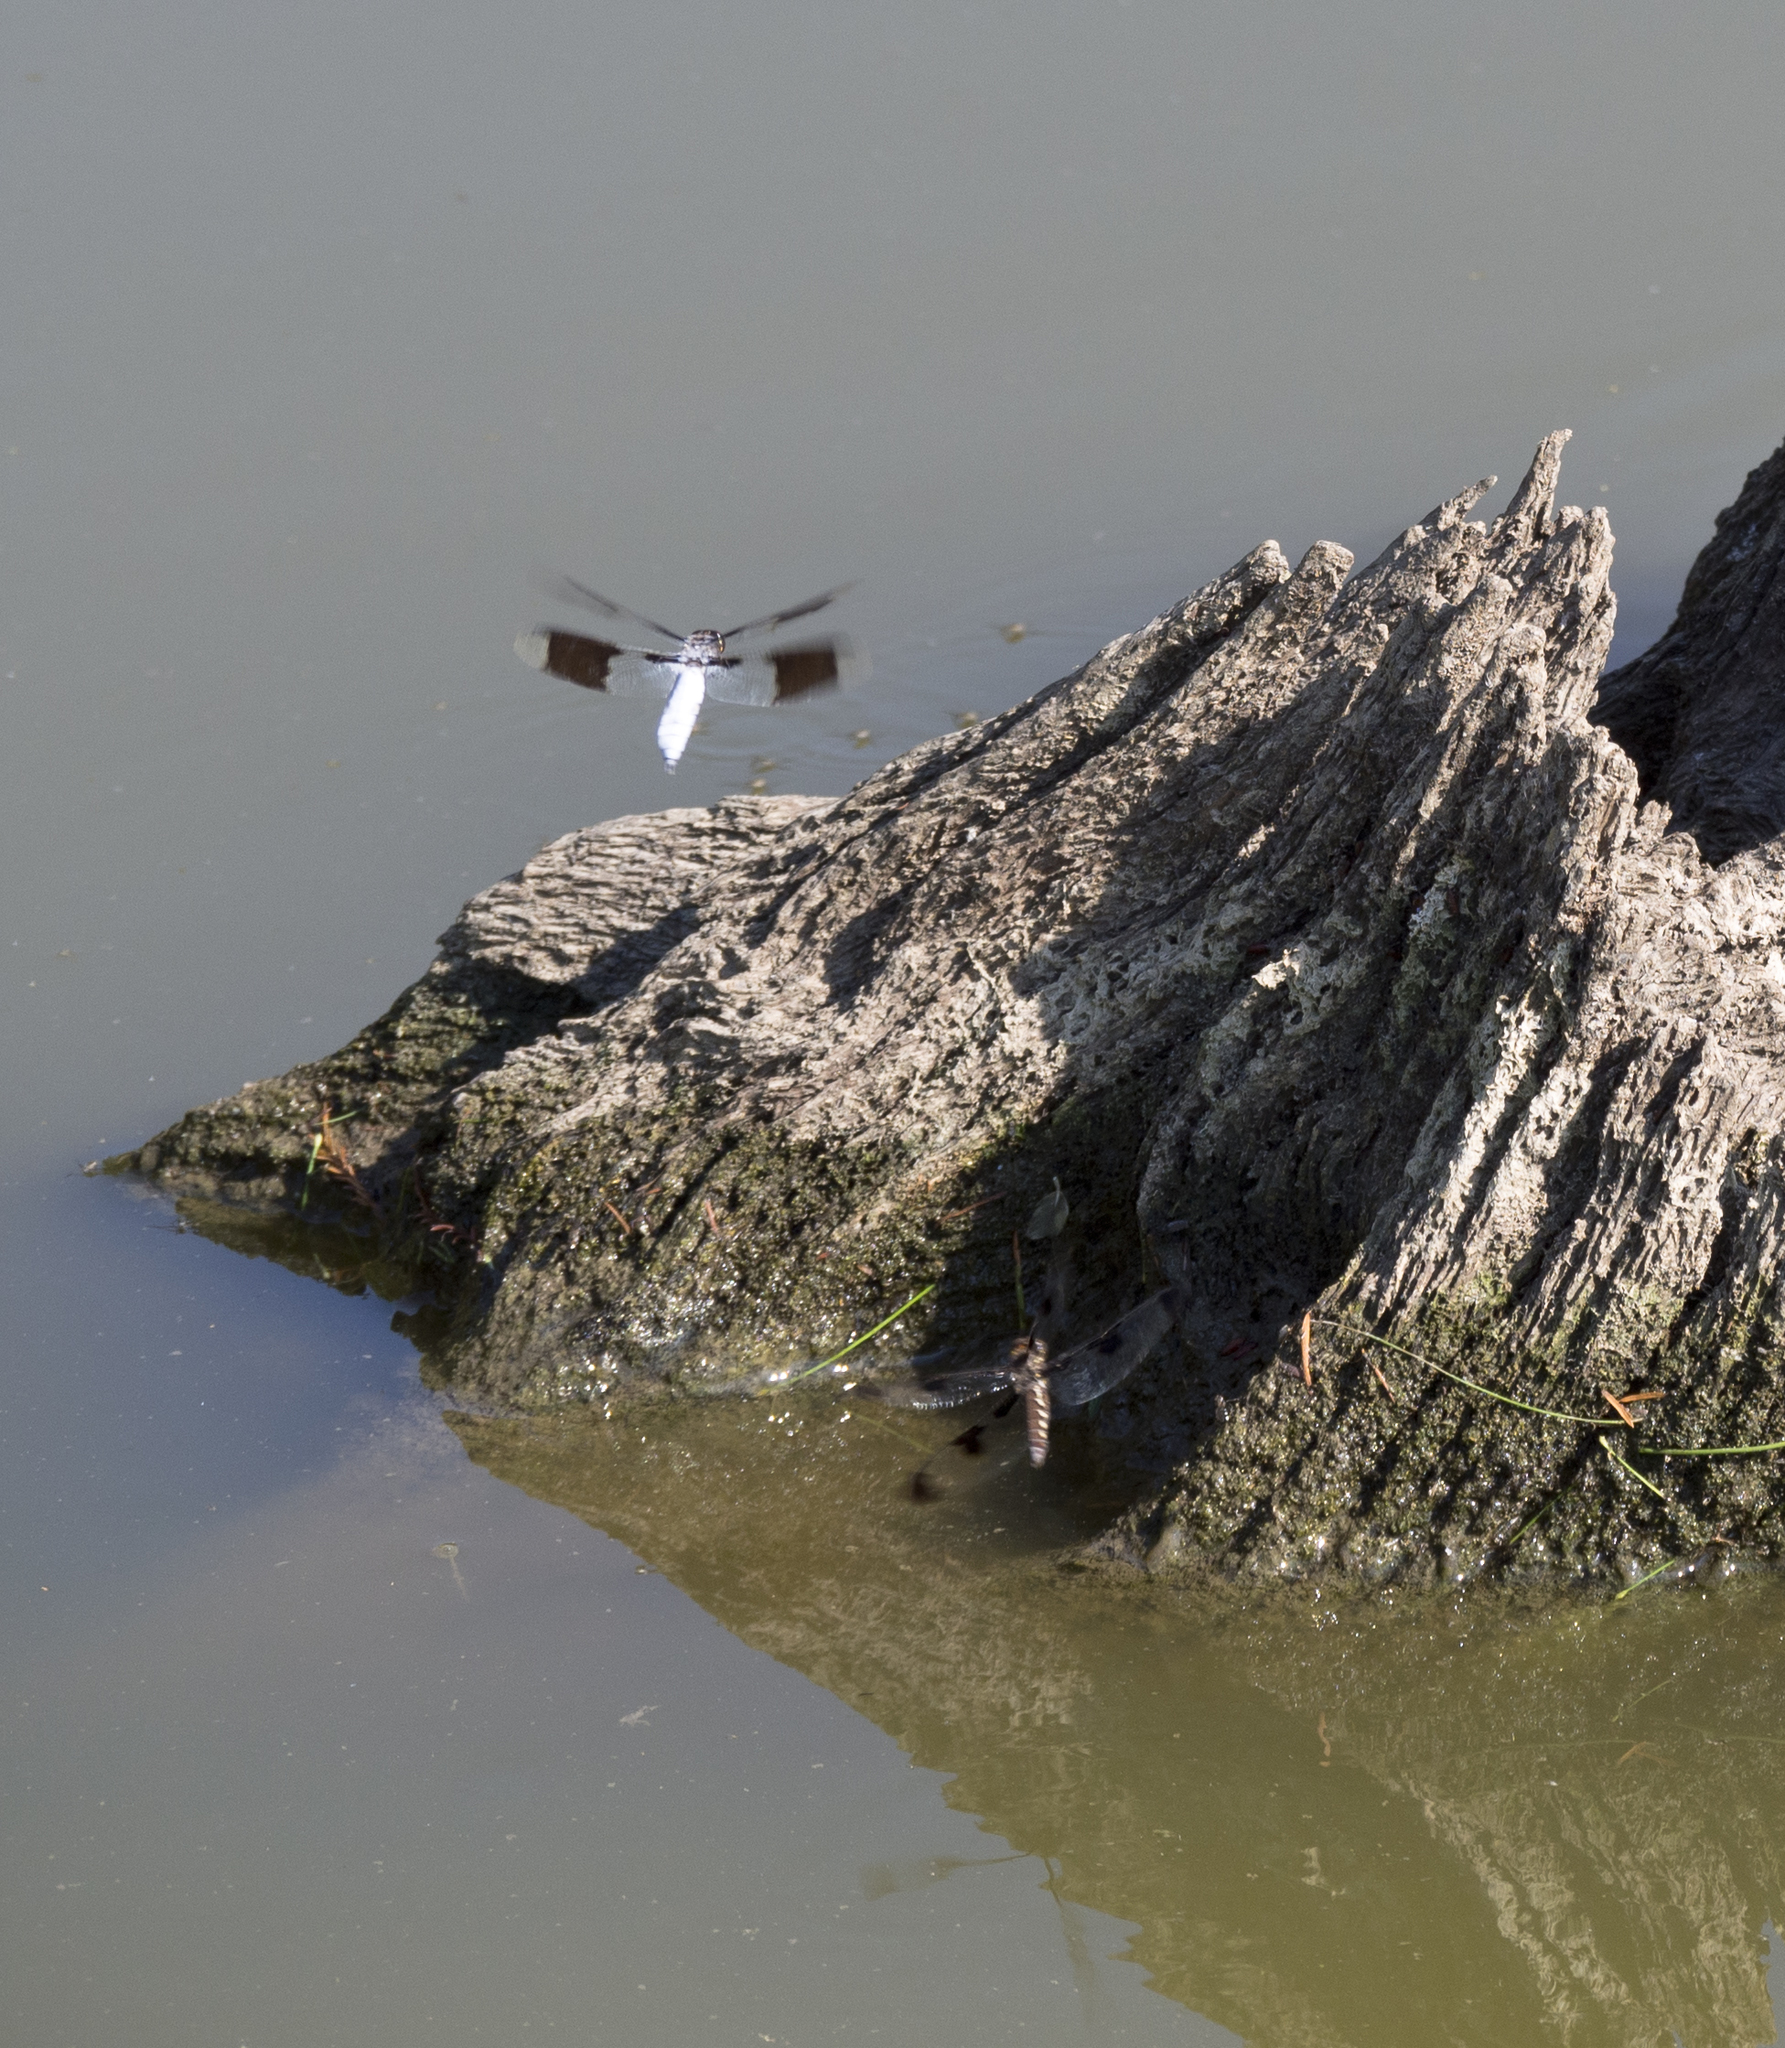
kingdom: Animalia
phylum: Arthropoda
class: Insecta
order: Odonata
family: Libellulidae
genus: Plathemis
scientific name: Plathemis lydia
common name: Common whitetail
